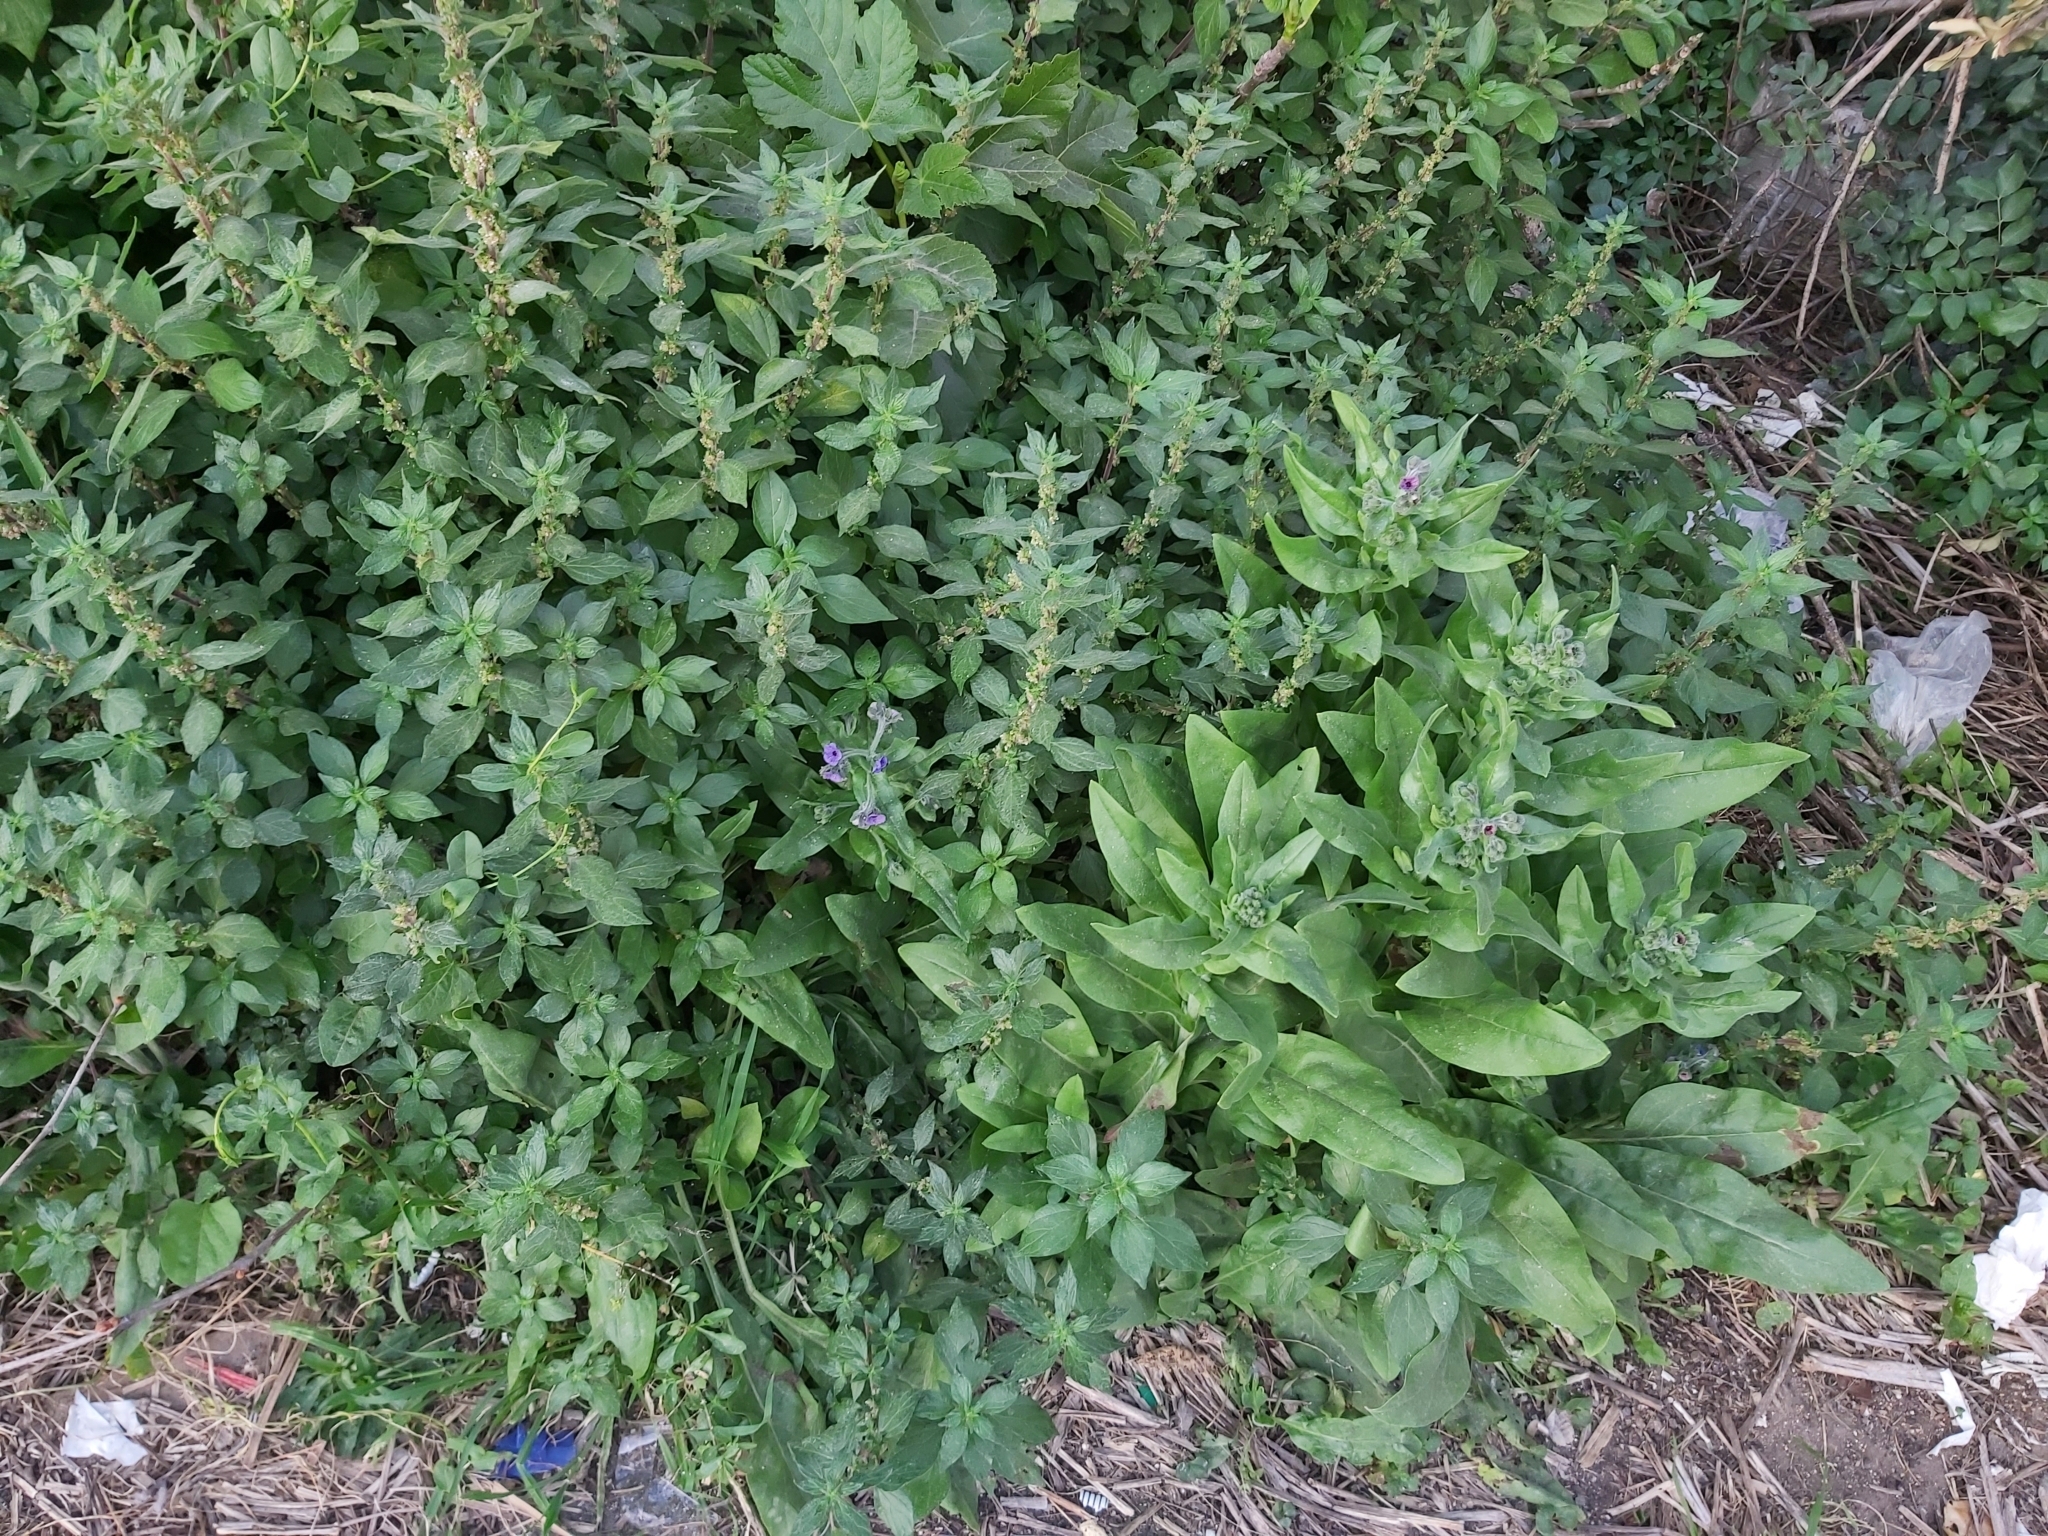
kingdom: Plantae
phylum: Tracheophyta
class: Magnoliopsida
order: Boraginales
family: Boraginaceae
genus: Cynoglossum
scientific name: Cynoglossum creticum
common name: Blue hound's tongue
